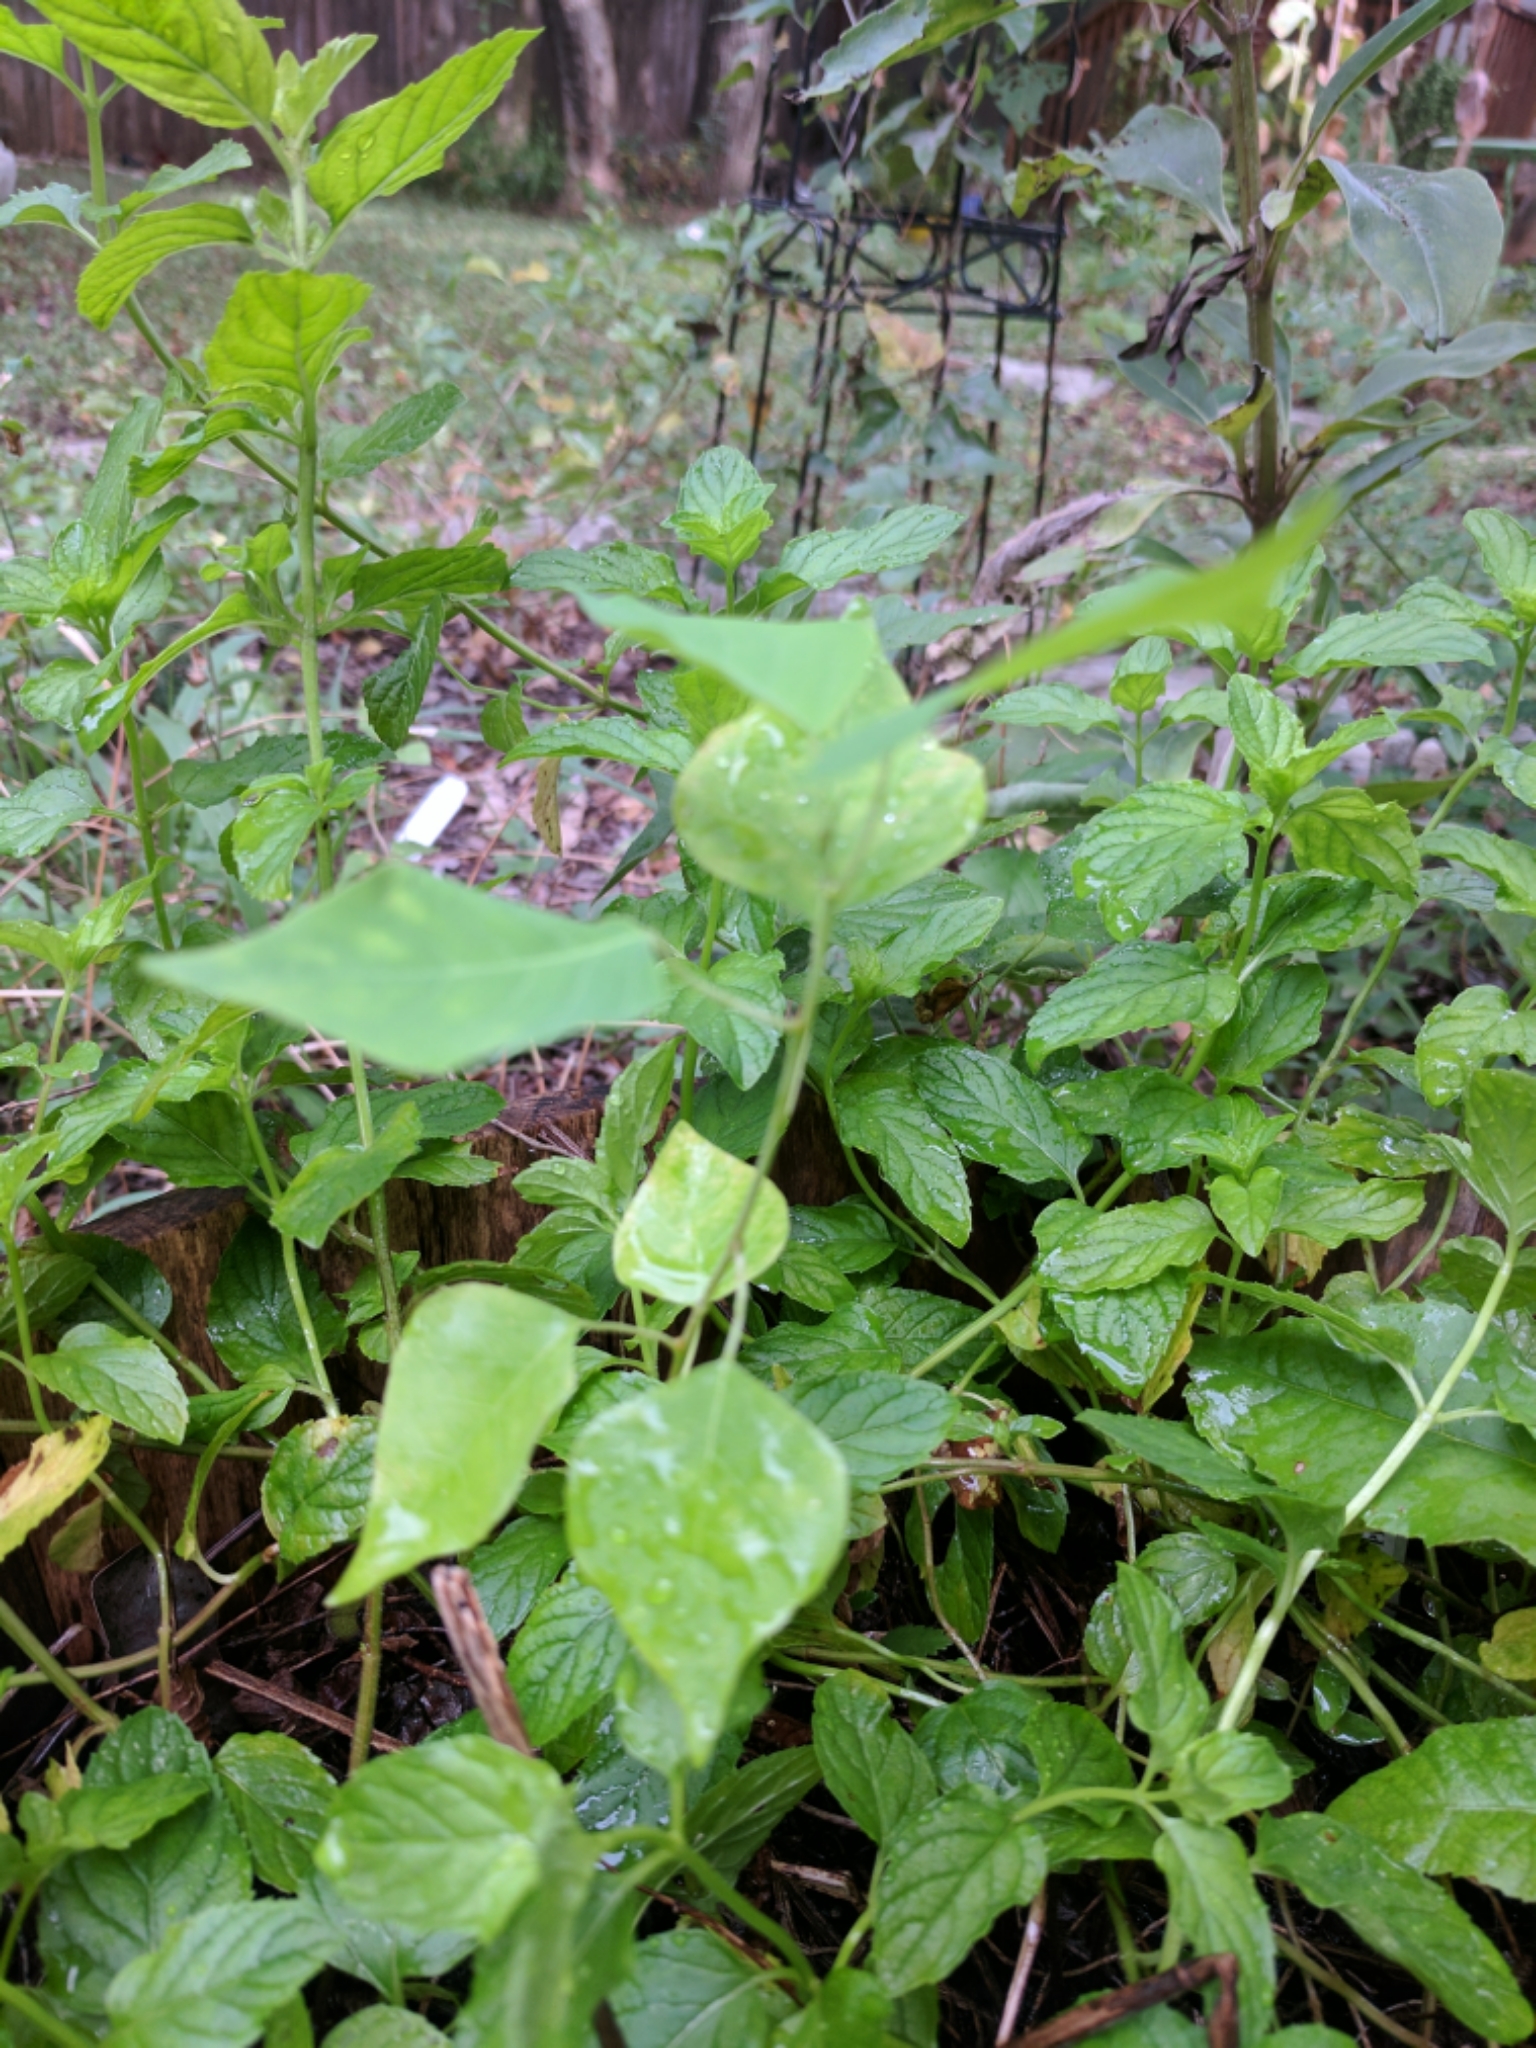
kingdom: Plantae
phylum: Tracheophyta
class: Magnoliopsida
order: Malpighiales
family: Euphorbiaceae
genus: Triadica
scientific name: Triadica sebifera
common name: Chinese tallow
